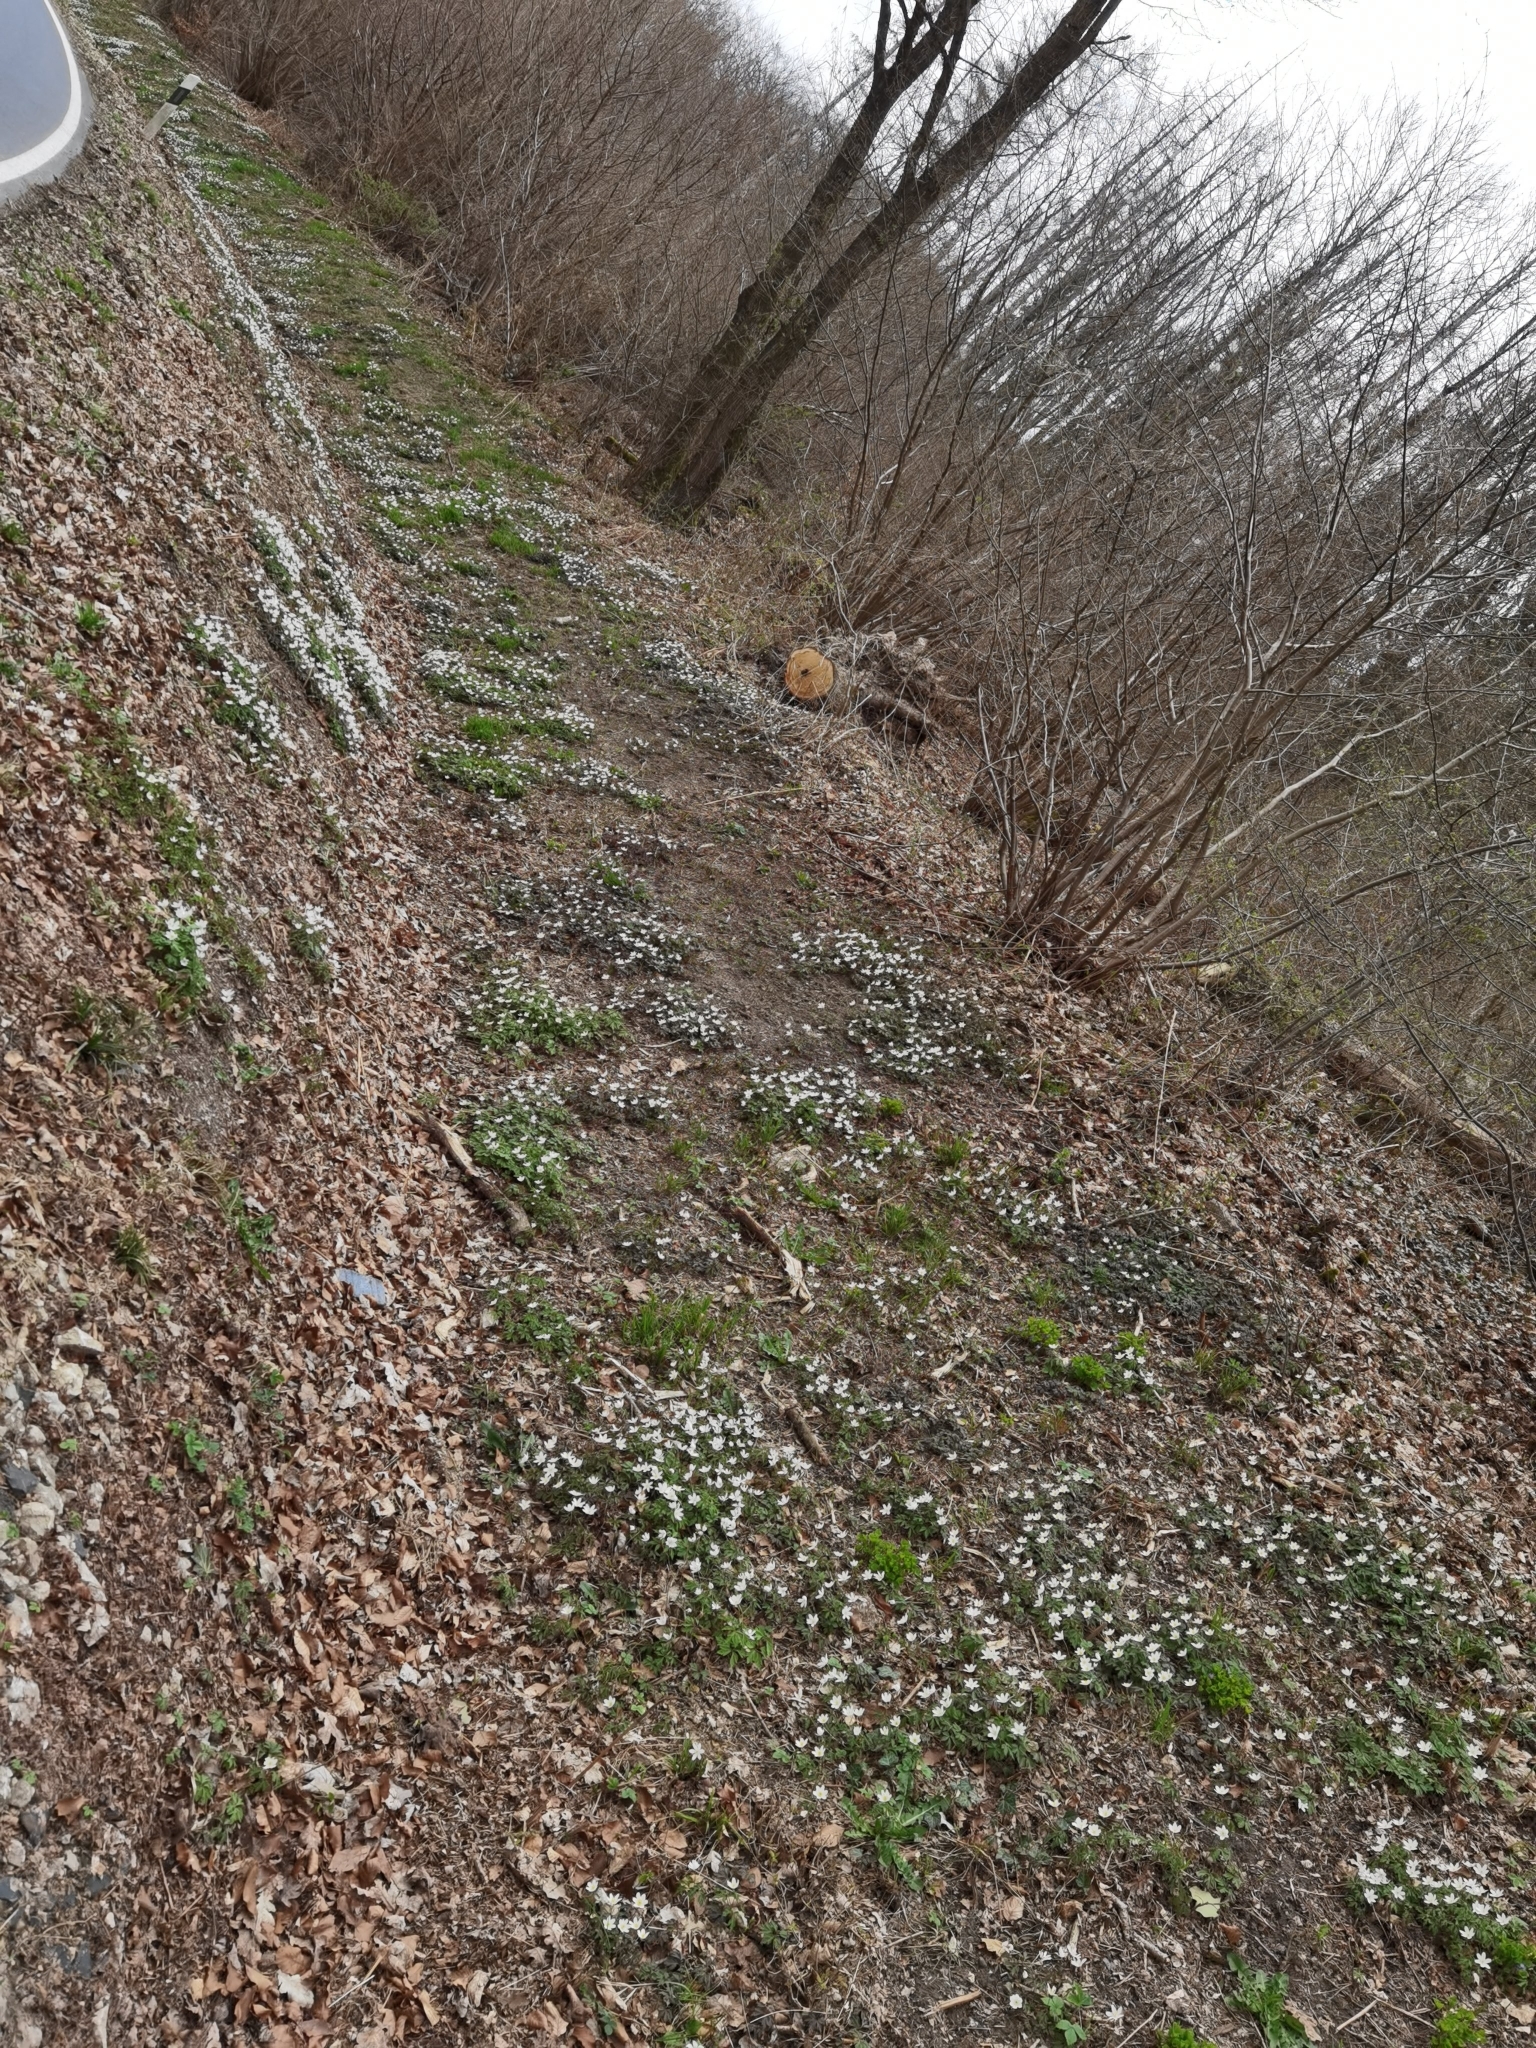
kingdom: Plantae
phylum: Tracheophyta
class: Magnoliopsida
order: Ranunculales
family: Ranunculaceae
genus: Anemone
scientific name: Anemone nemorosa
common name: Wood anemone
